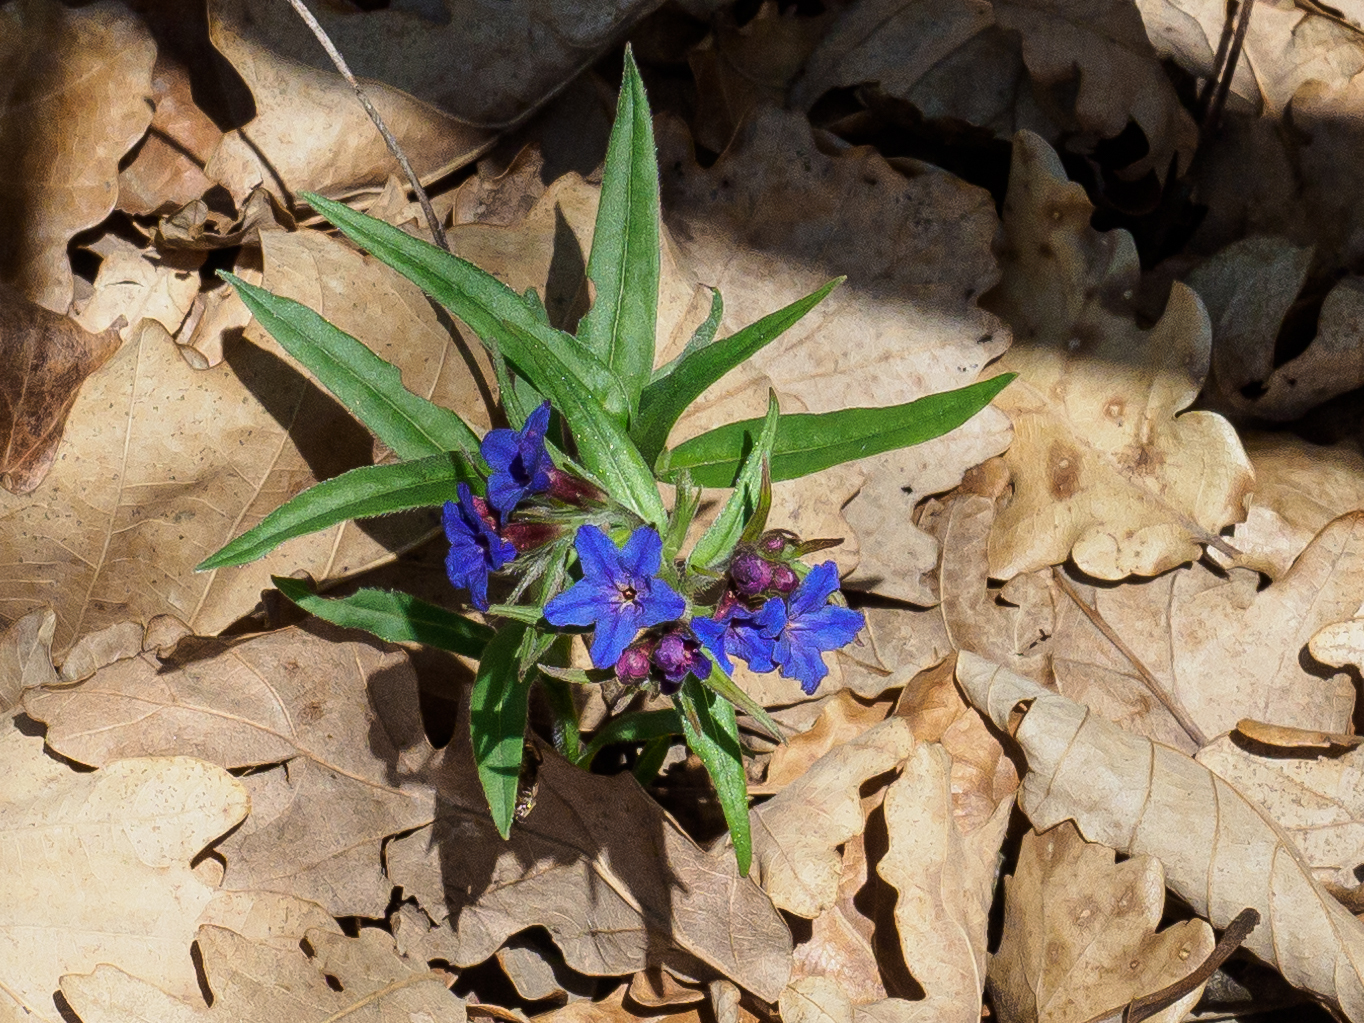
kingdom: Plantae
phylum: Tracheophyta
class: Magnoliopsida
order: Boraginales
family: Boraginaceae
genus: Aegonychon
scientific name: Aegonychon purpurocaeruleum
